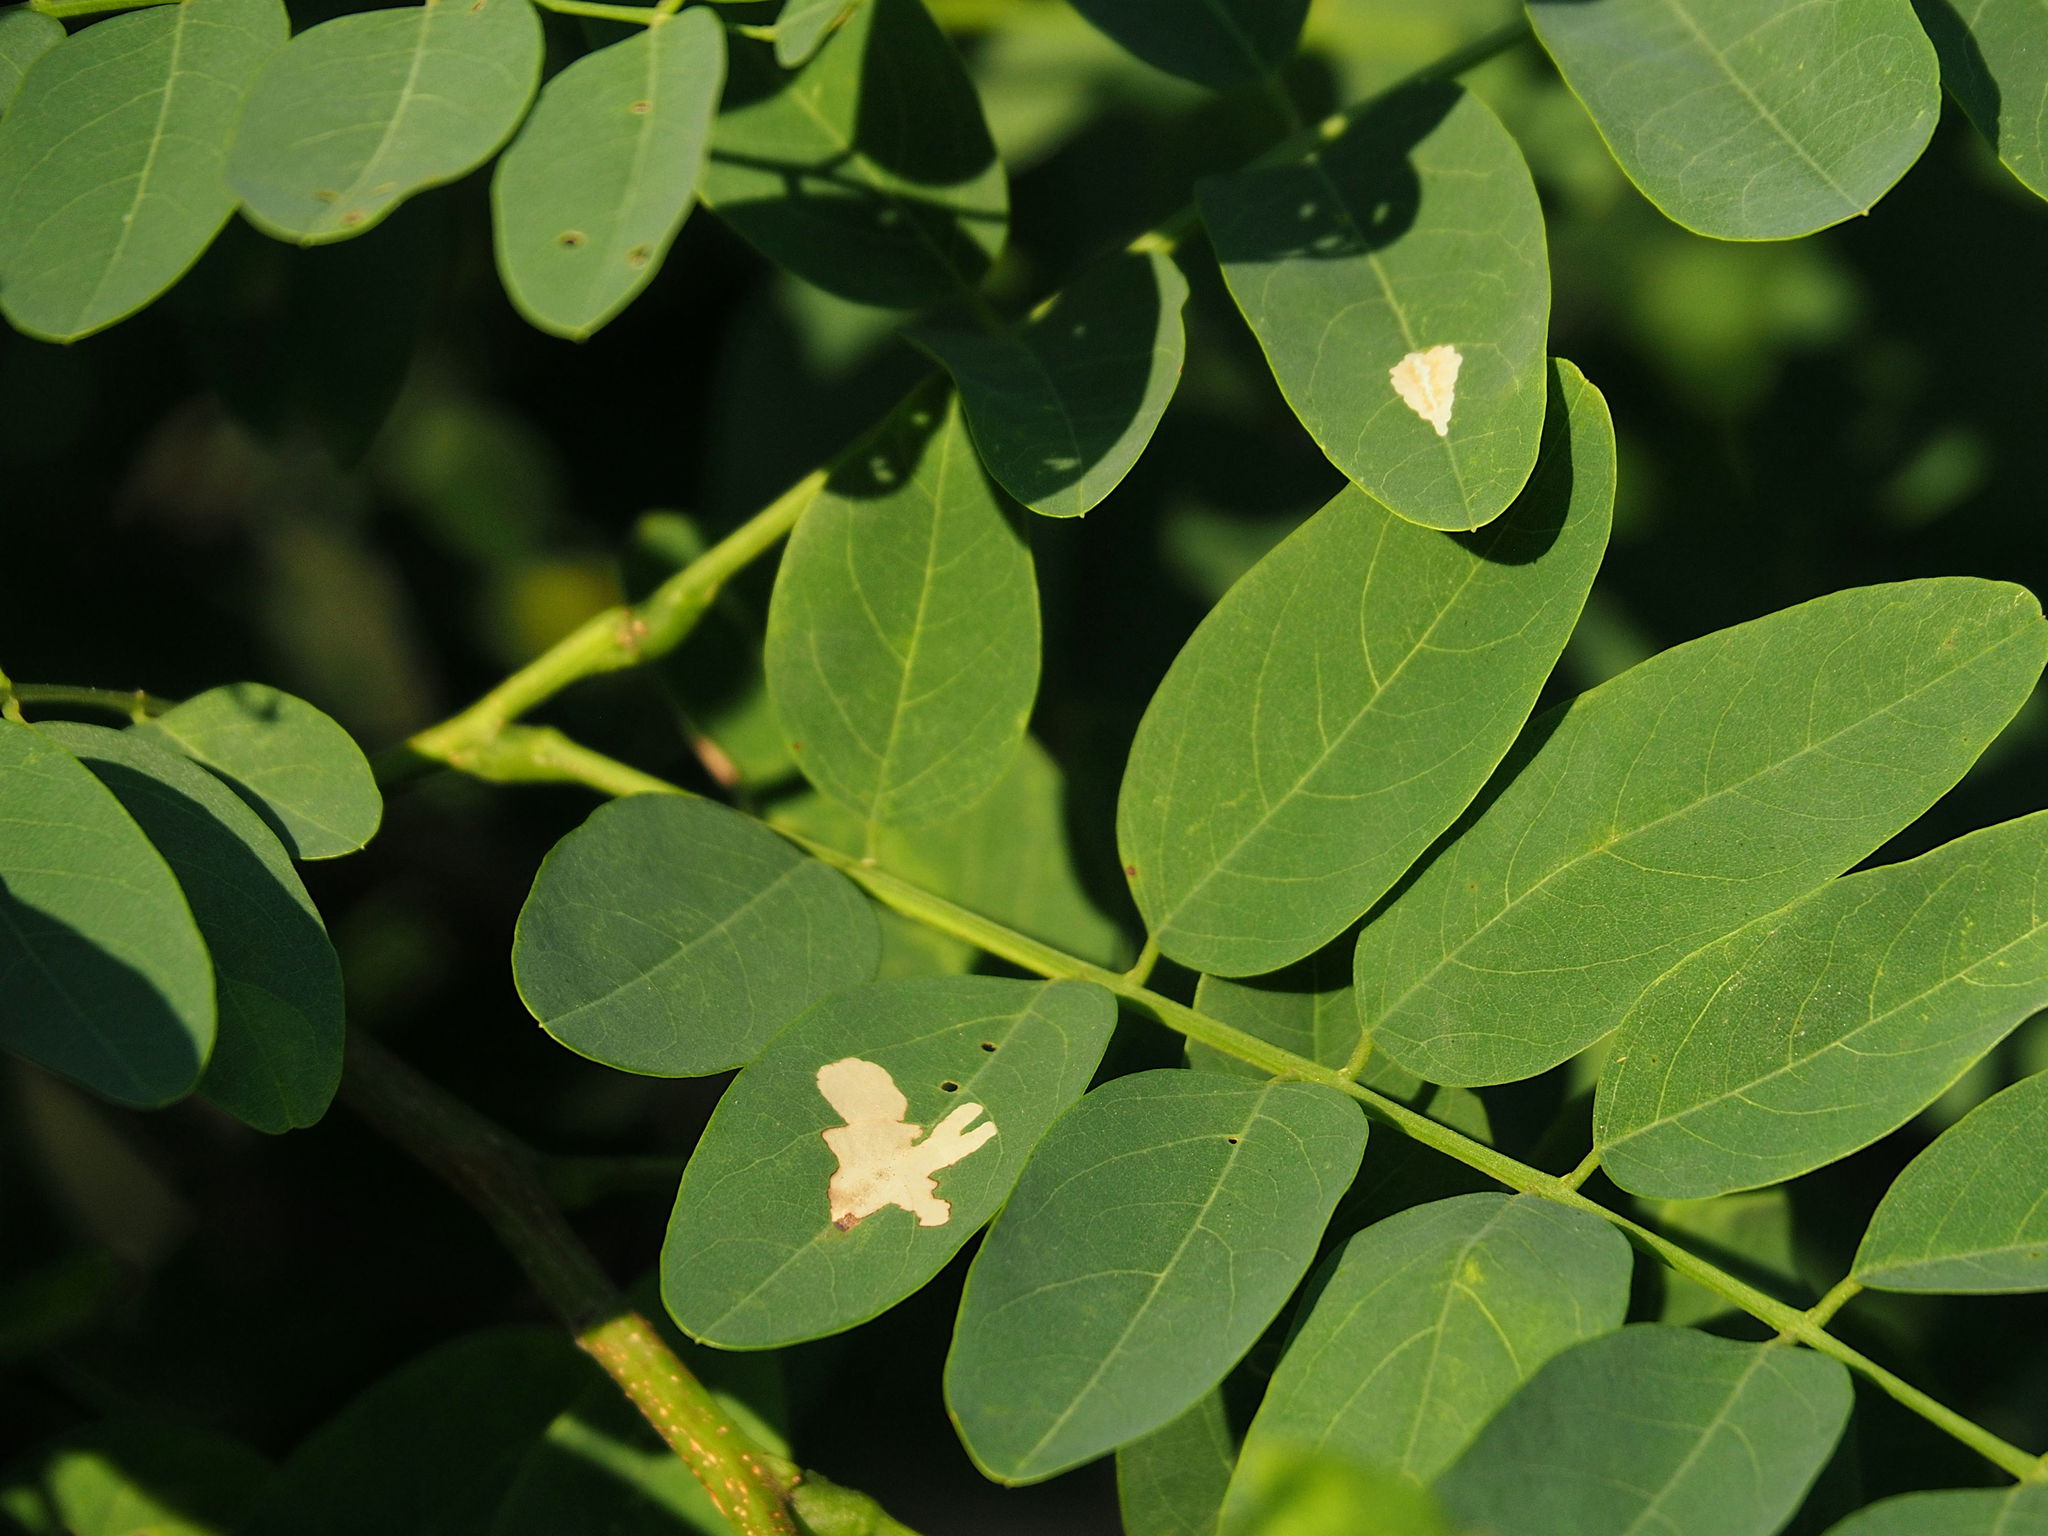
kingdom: Animalia
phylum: Arthropoda
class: Insecta
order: Lepidoptera
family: Gracillariidae
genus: Parectopa
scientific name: Parectopa robiniella
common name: Locust digitate leafminer
